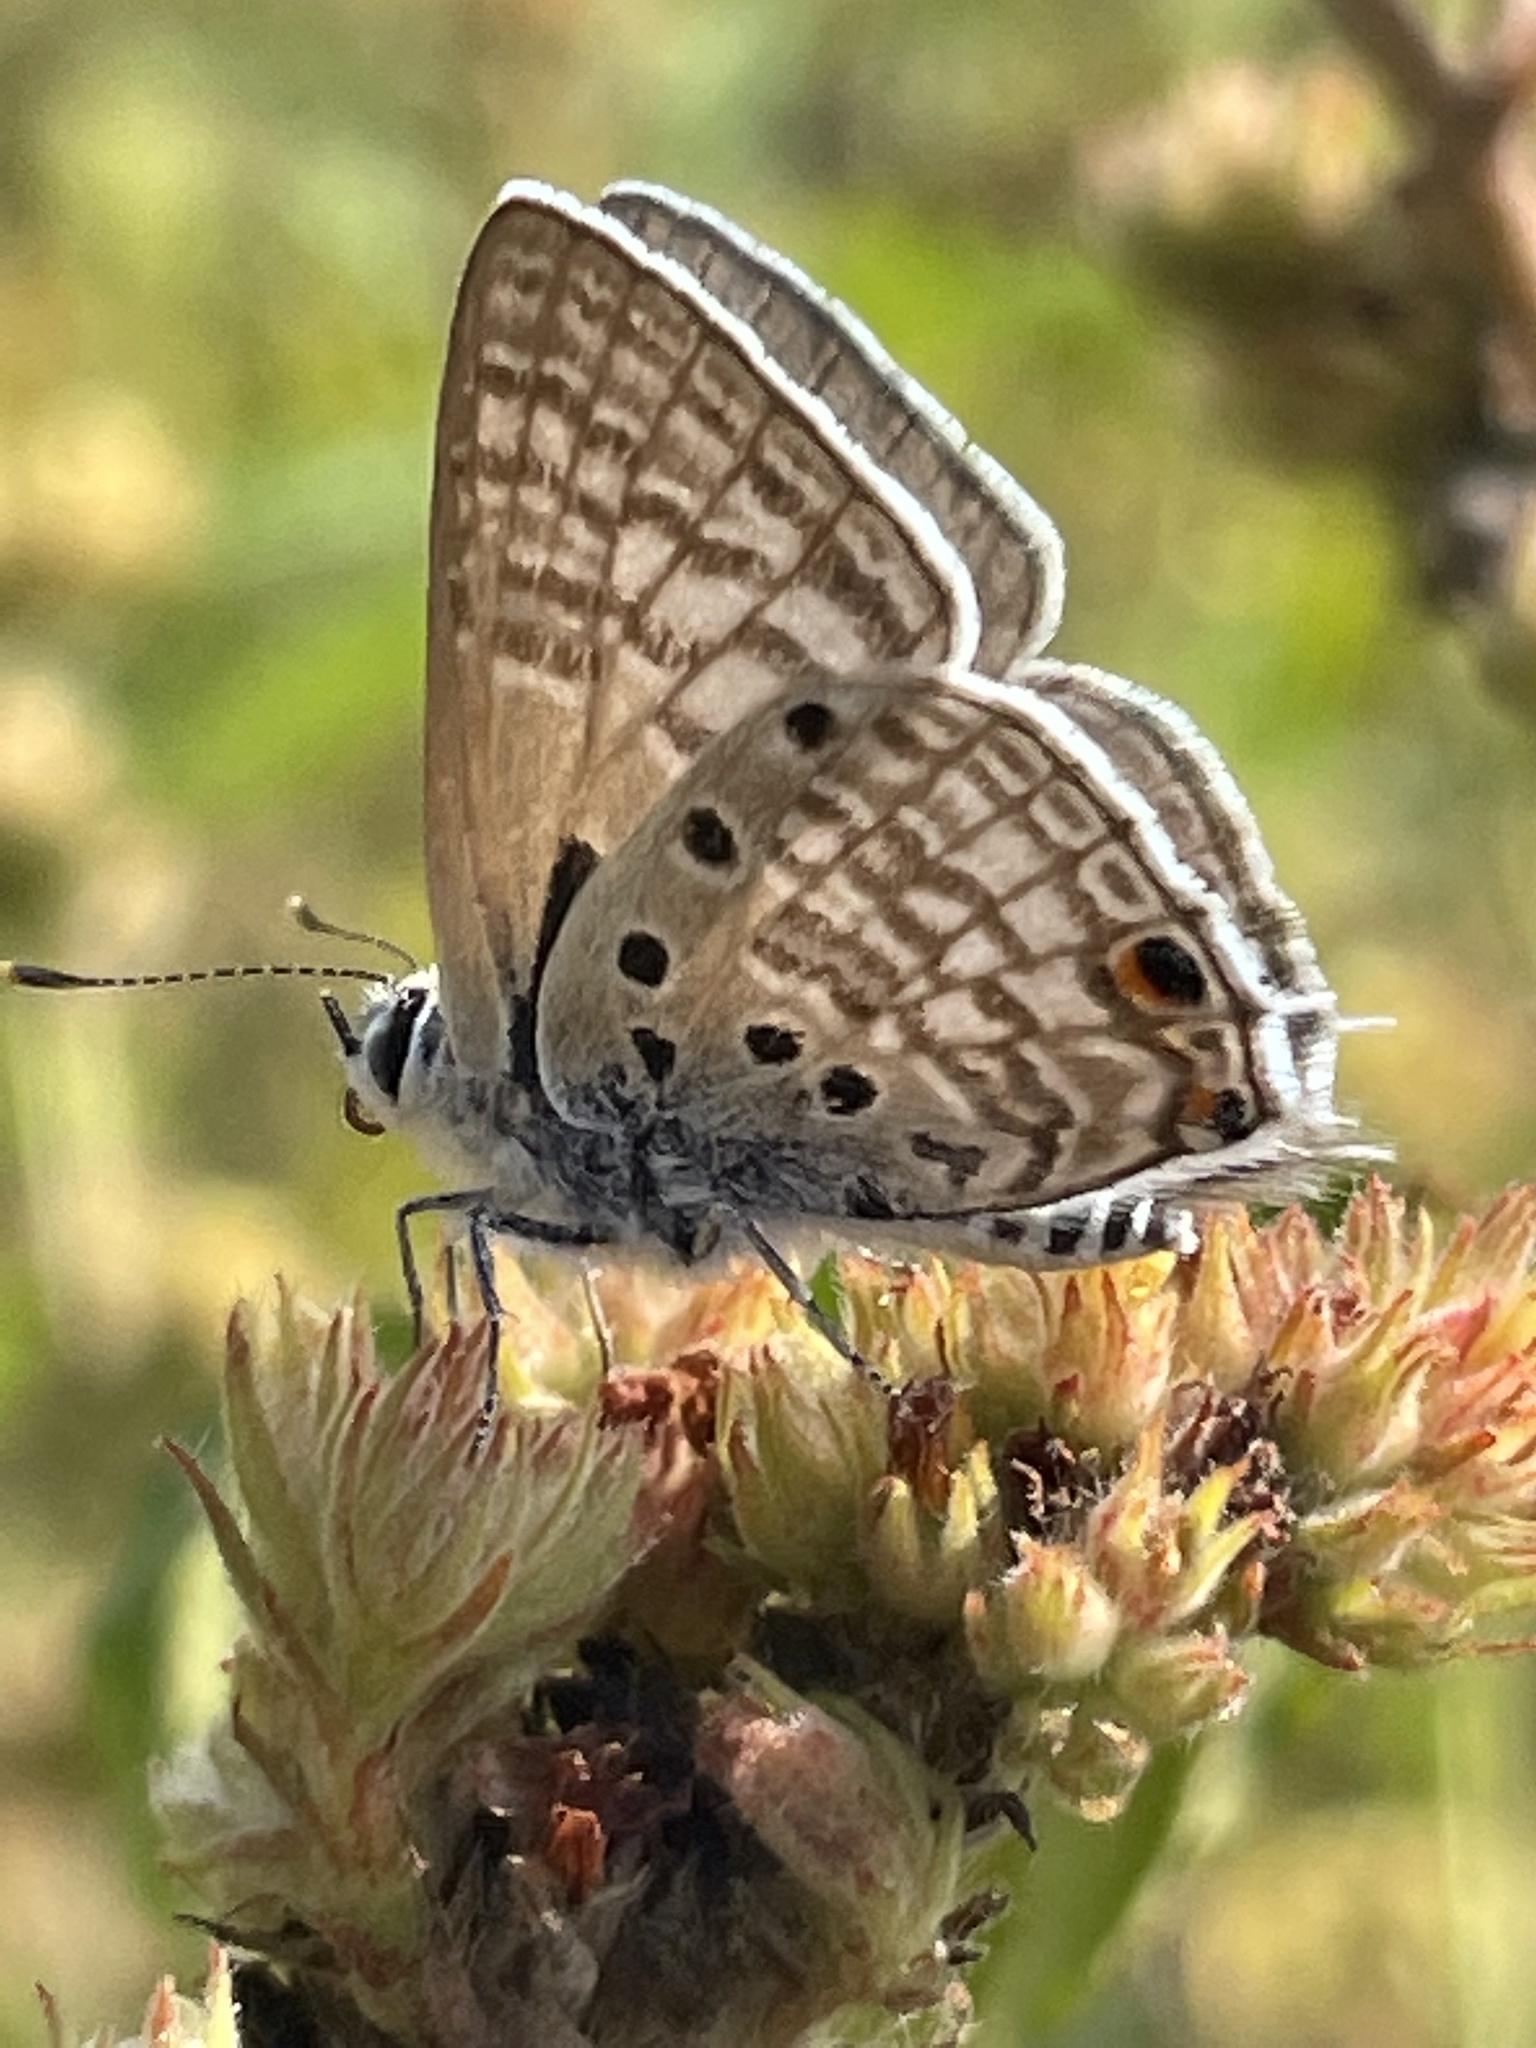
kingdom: Animalia
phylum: Arthropoda
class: Insecta
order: Lepidoptera
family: Lycaenidae
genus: Anthene
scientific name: Anthene amarah
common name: Black-striped hairtail
